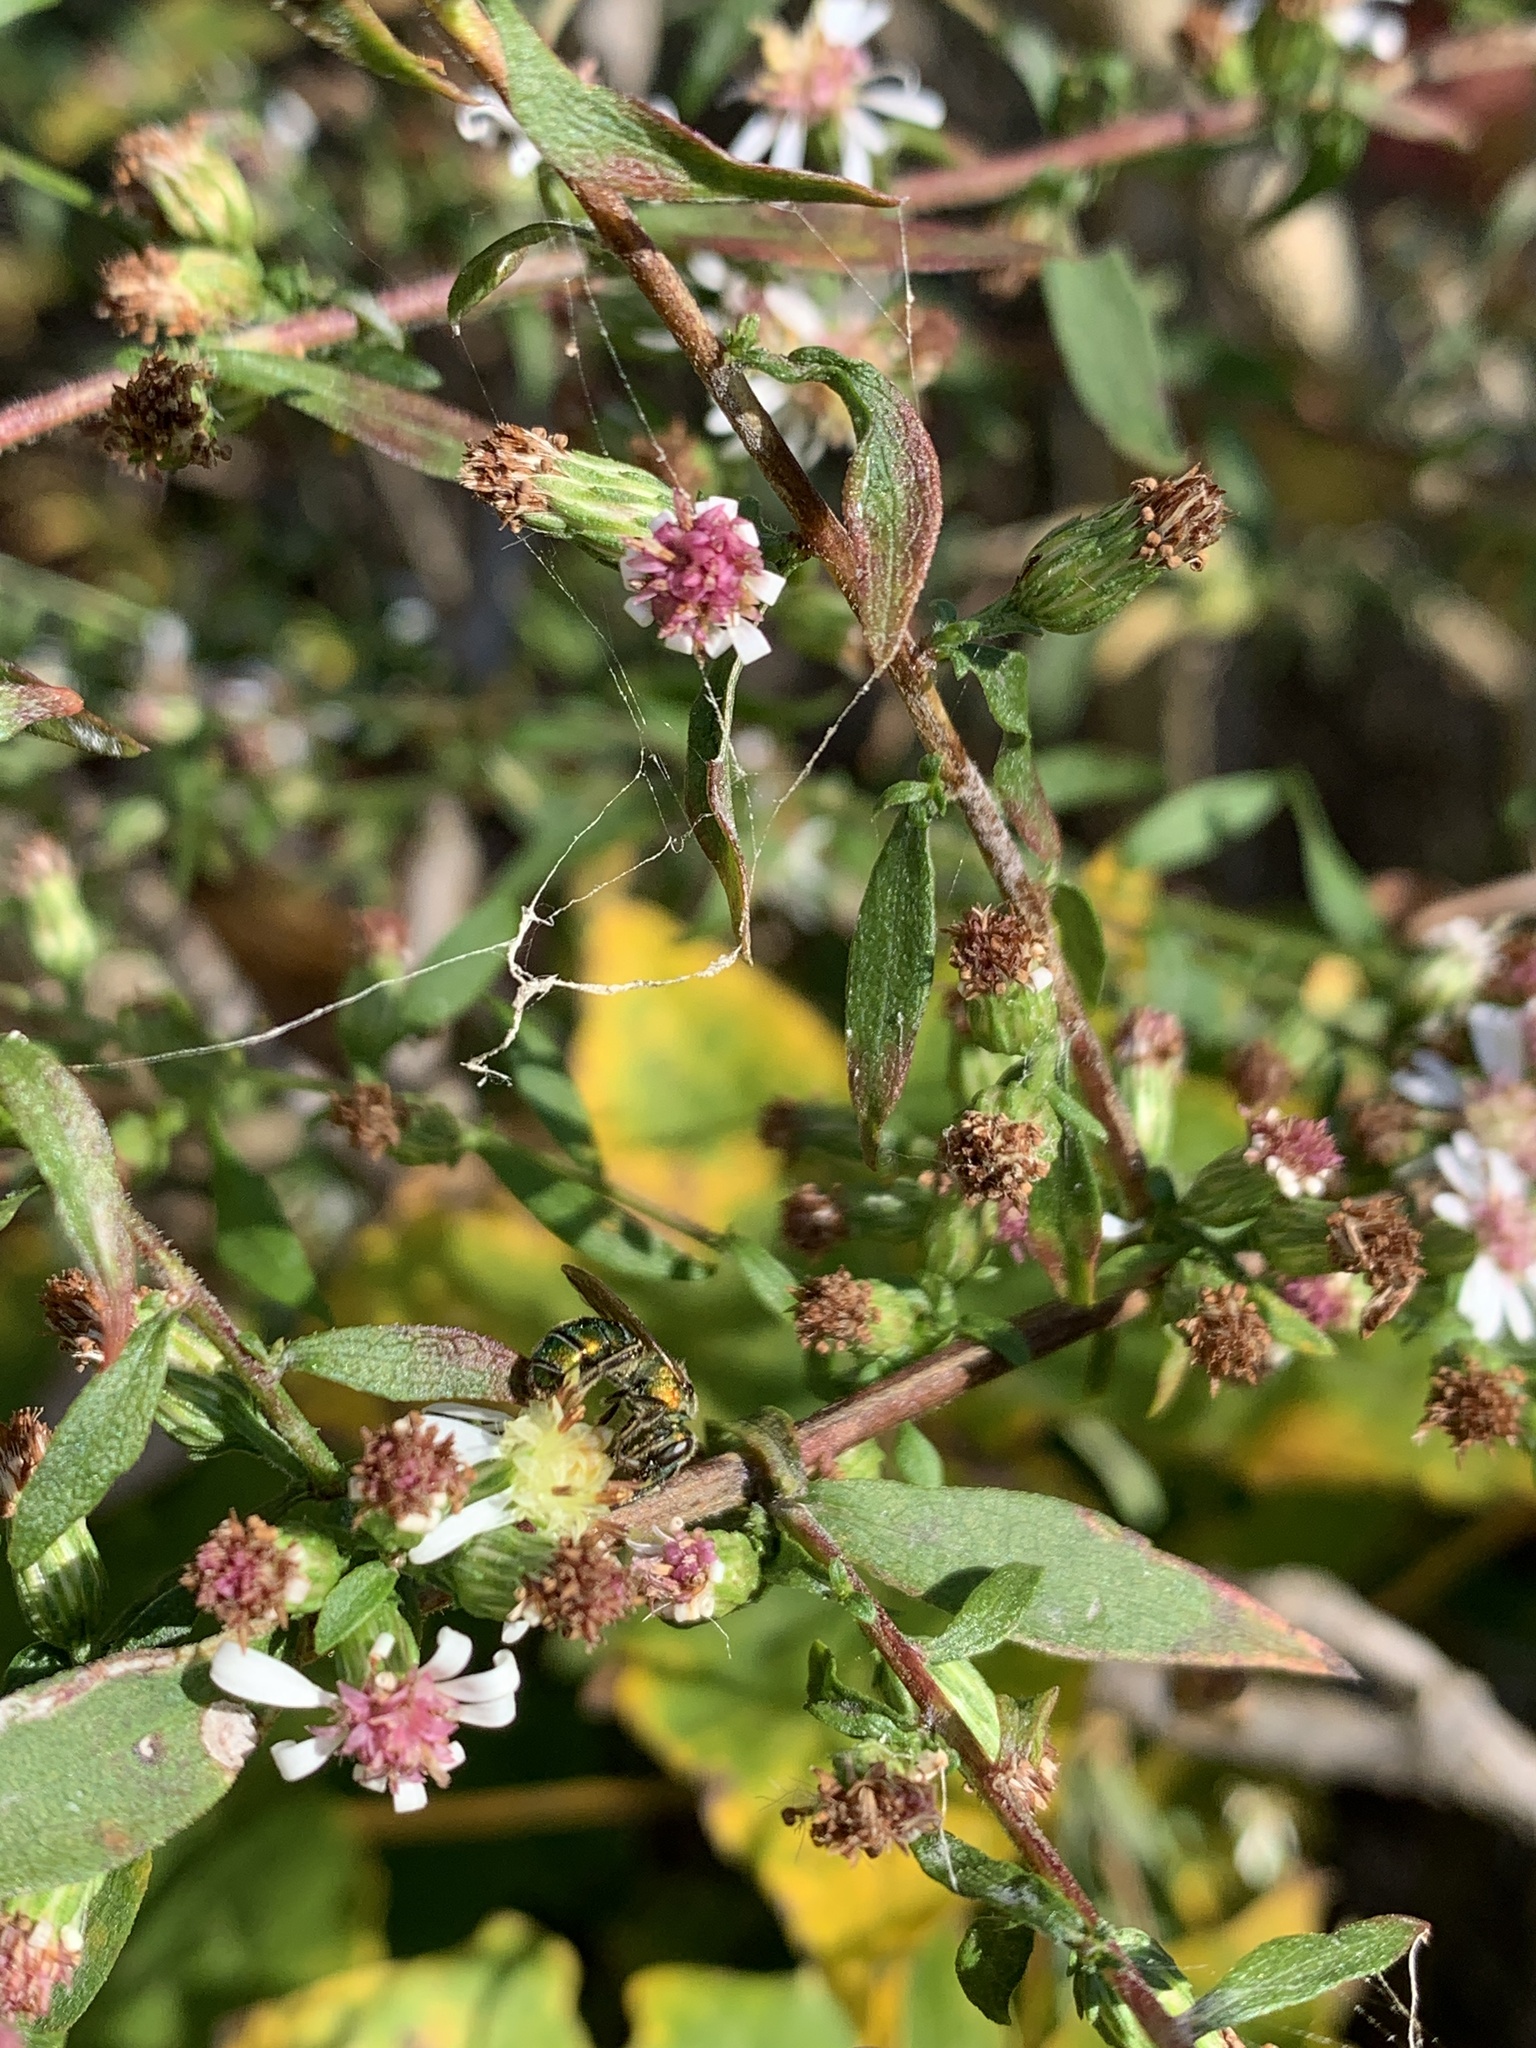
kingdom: Animalia
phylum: Arthropoda
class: Insecta
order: Hymenoptera
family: Halictidae
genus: Augochlora
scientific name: Augochlora pura
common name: Pure green sweat bee
